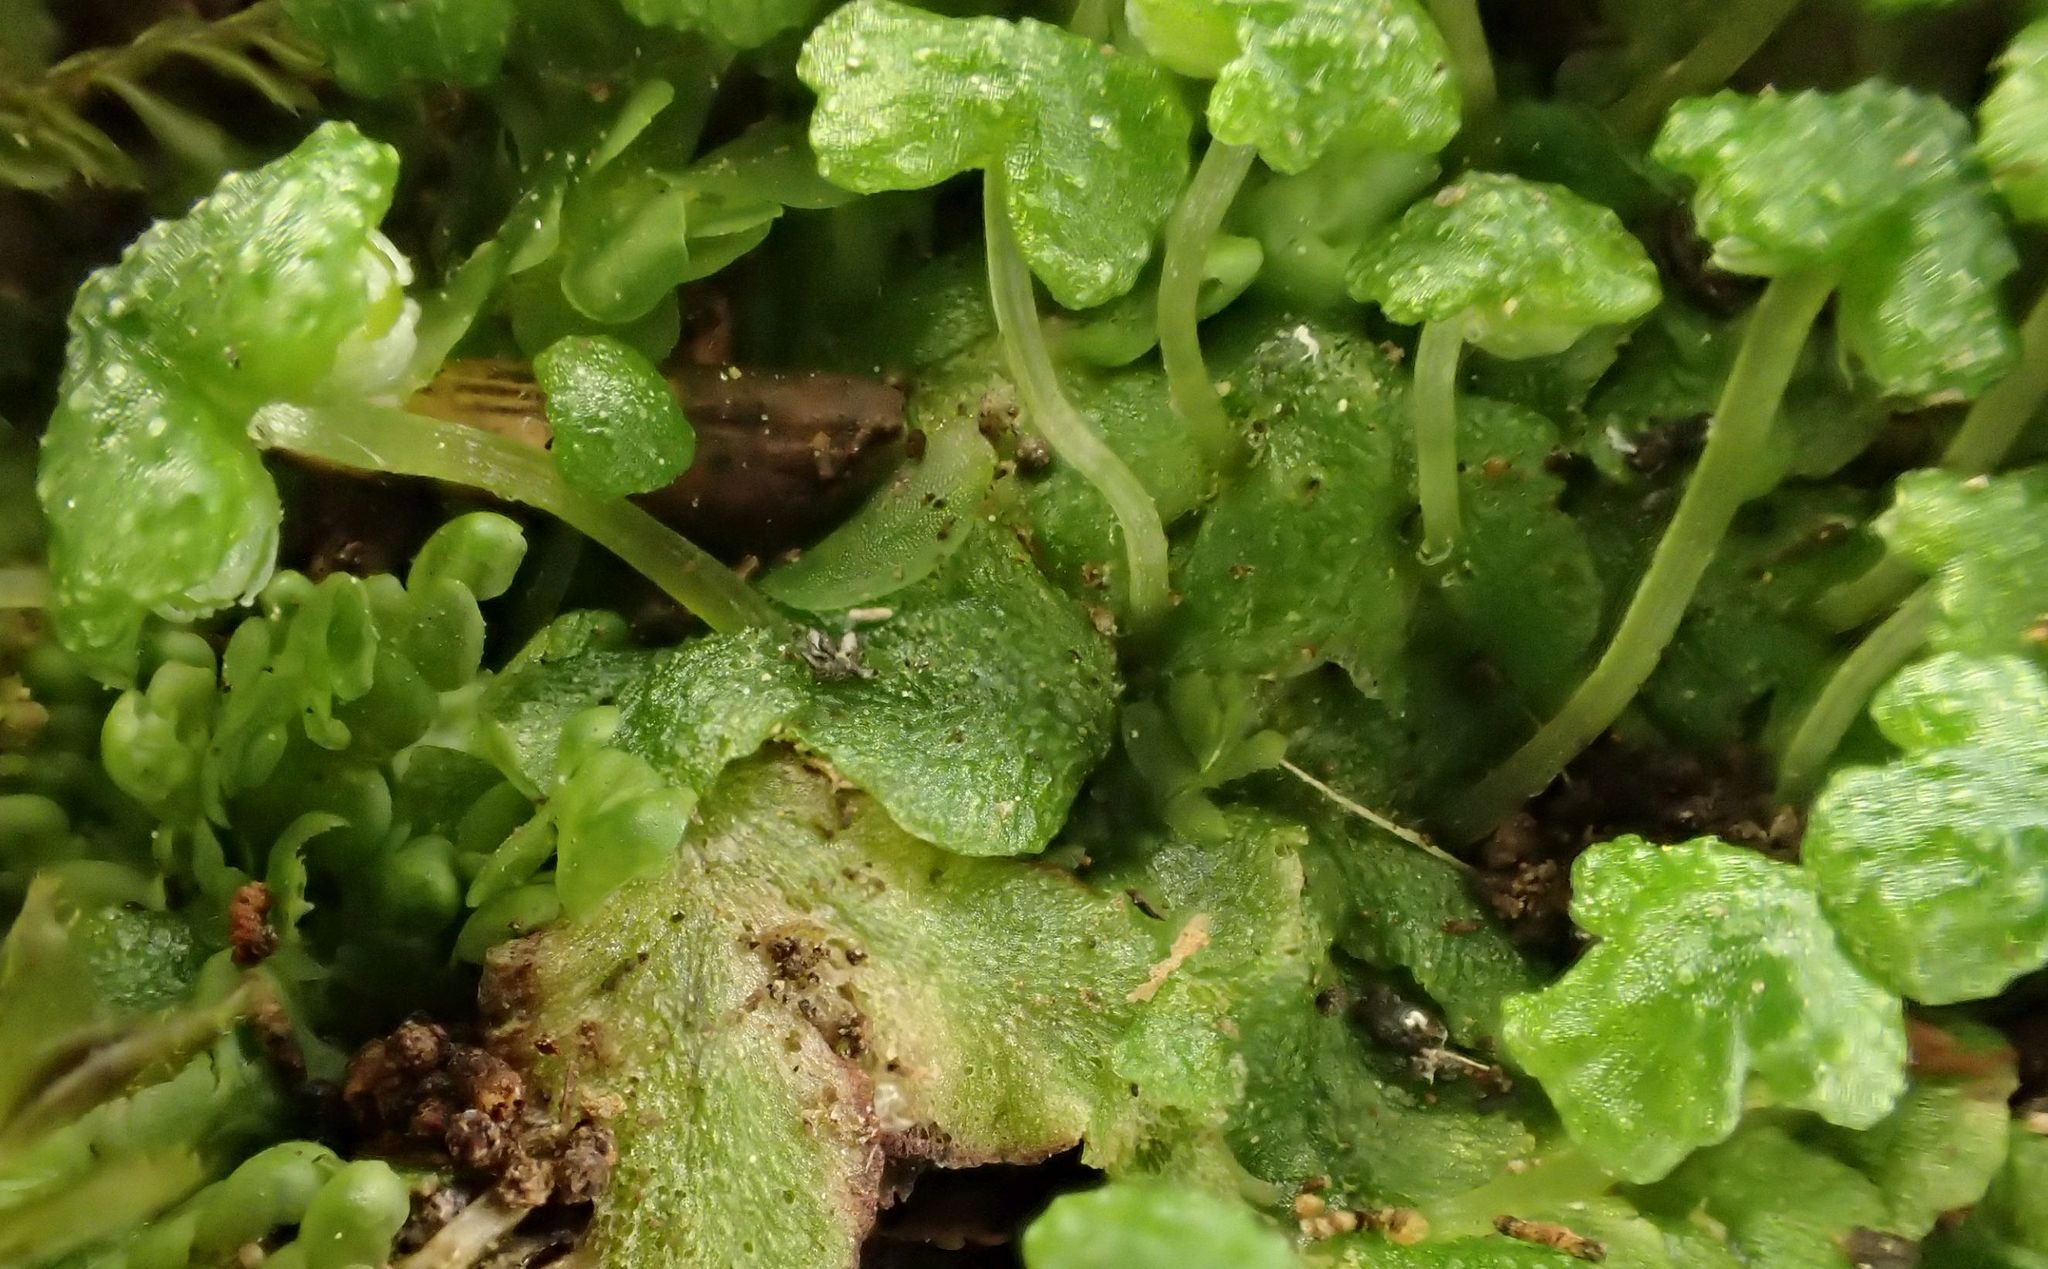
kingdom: Plantae
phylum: Marchantiophyta
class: Marchantiopsida
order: Marchantiales
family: Aytoniaceae
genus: Asterella
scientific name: Asterella tenera
